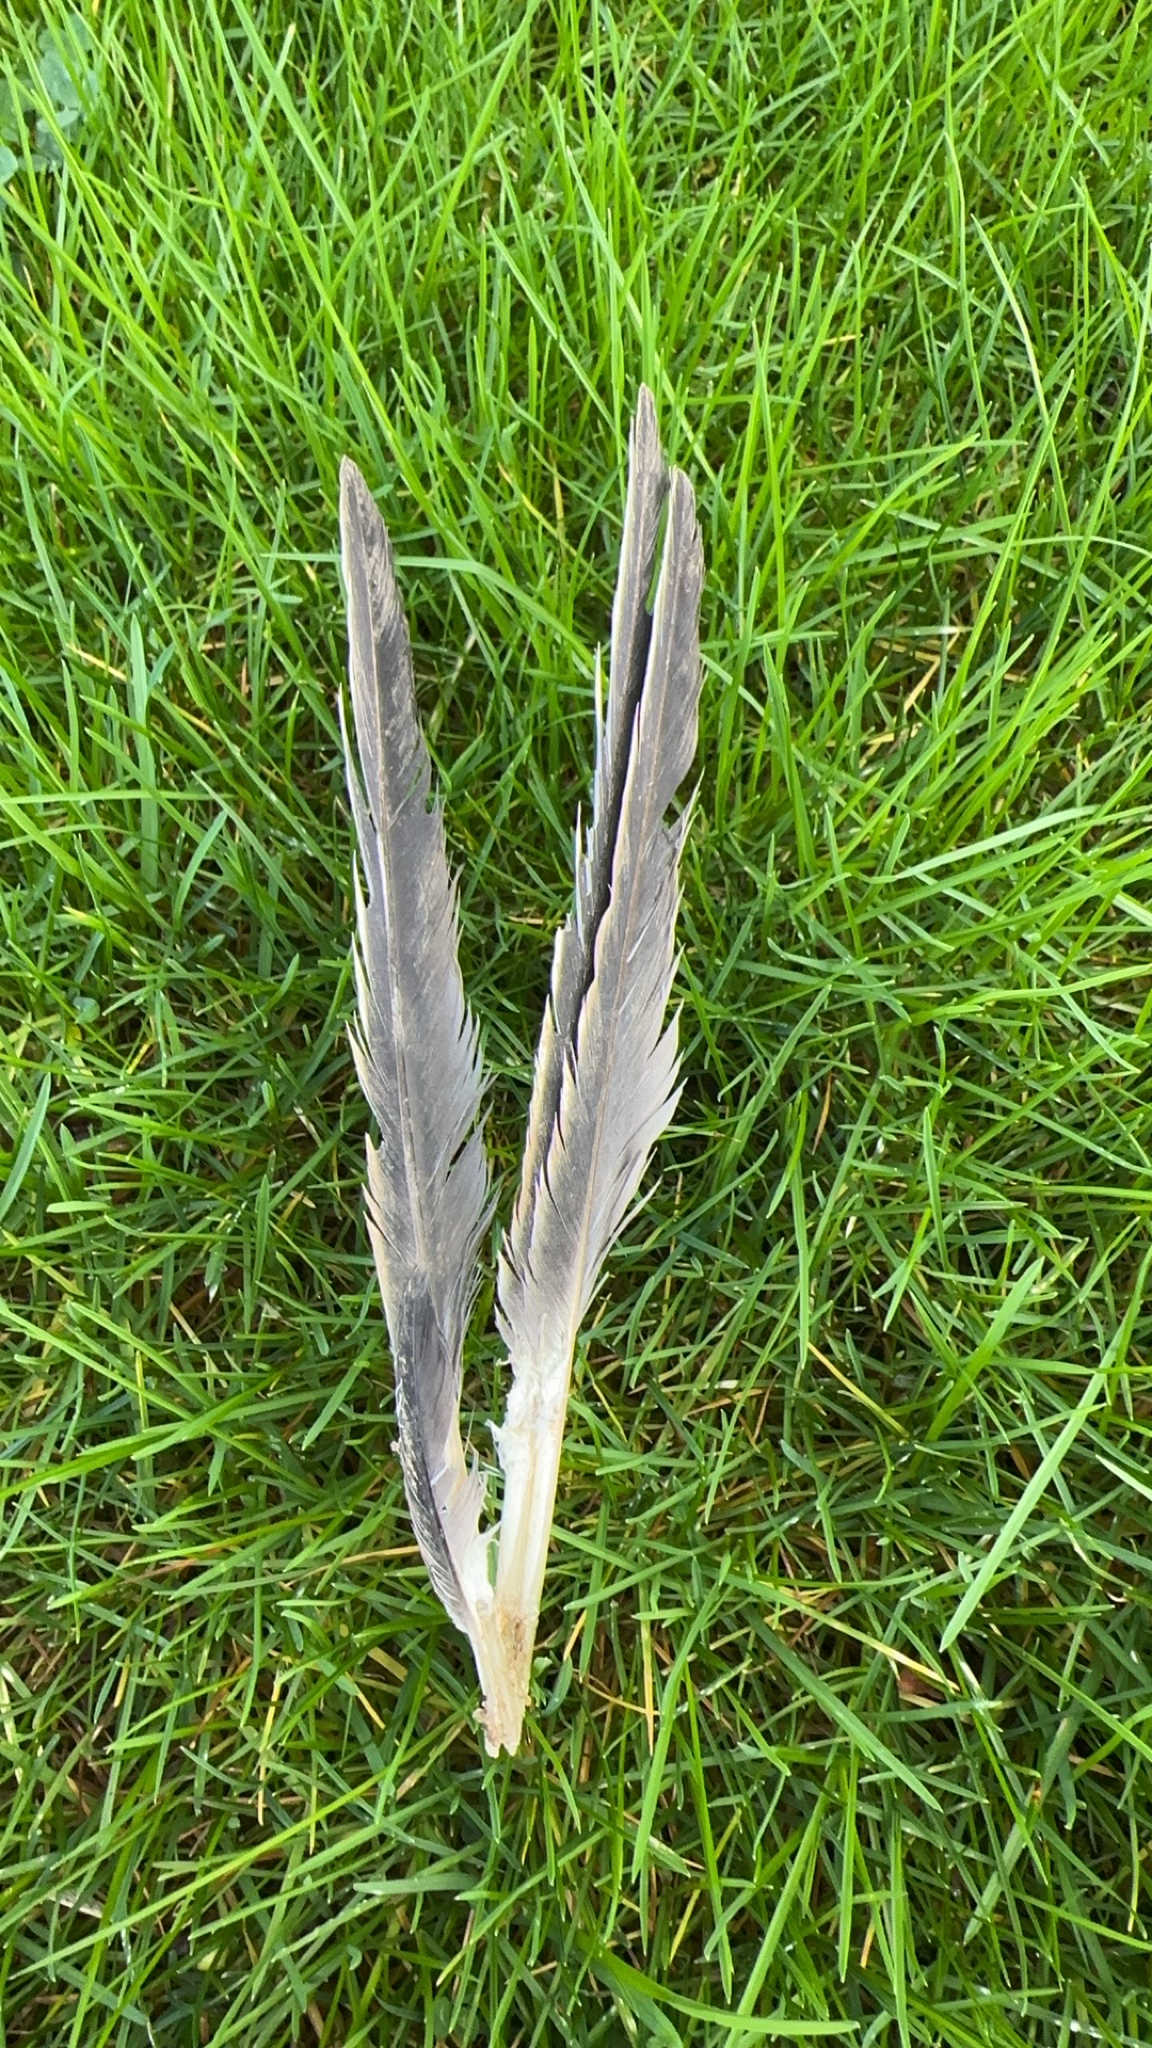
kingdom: Animalia
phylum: Chordata
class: Aves
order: Columbiformes
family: Columbidae
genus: Columba
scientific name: Columba palumbus
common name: Common wood pigeon
